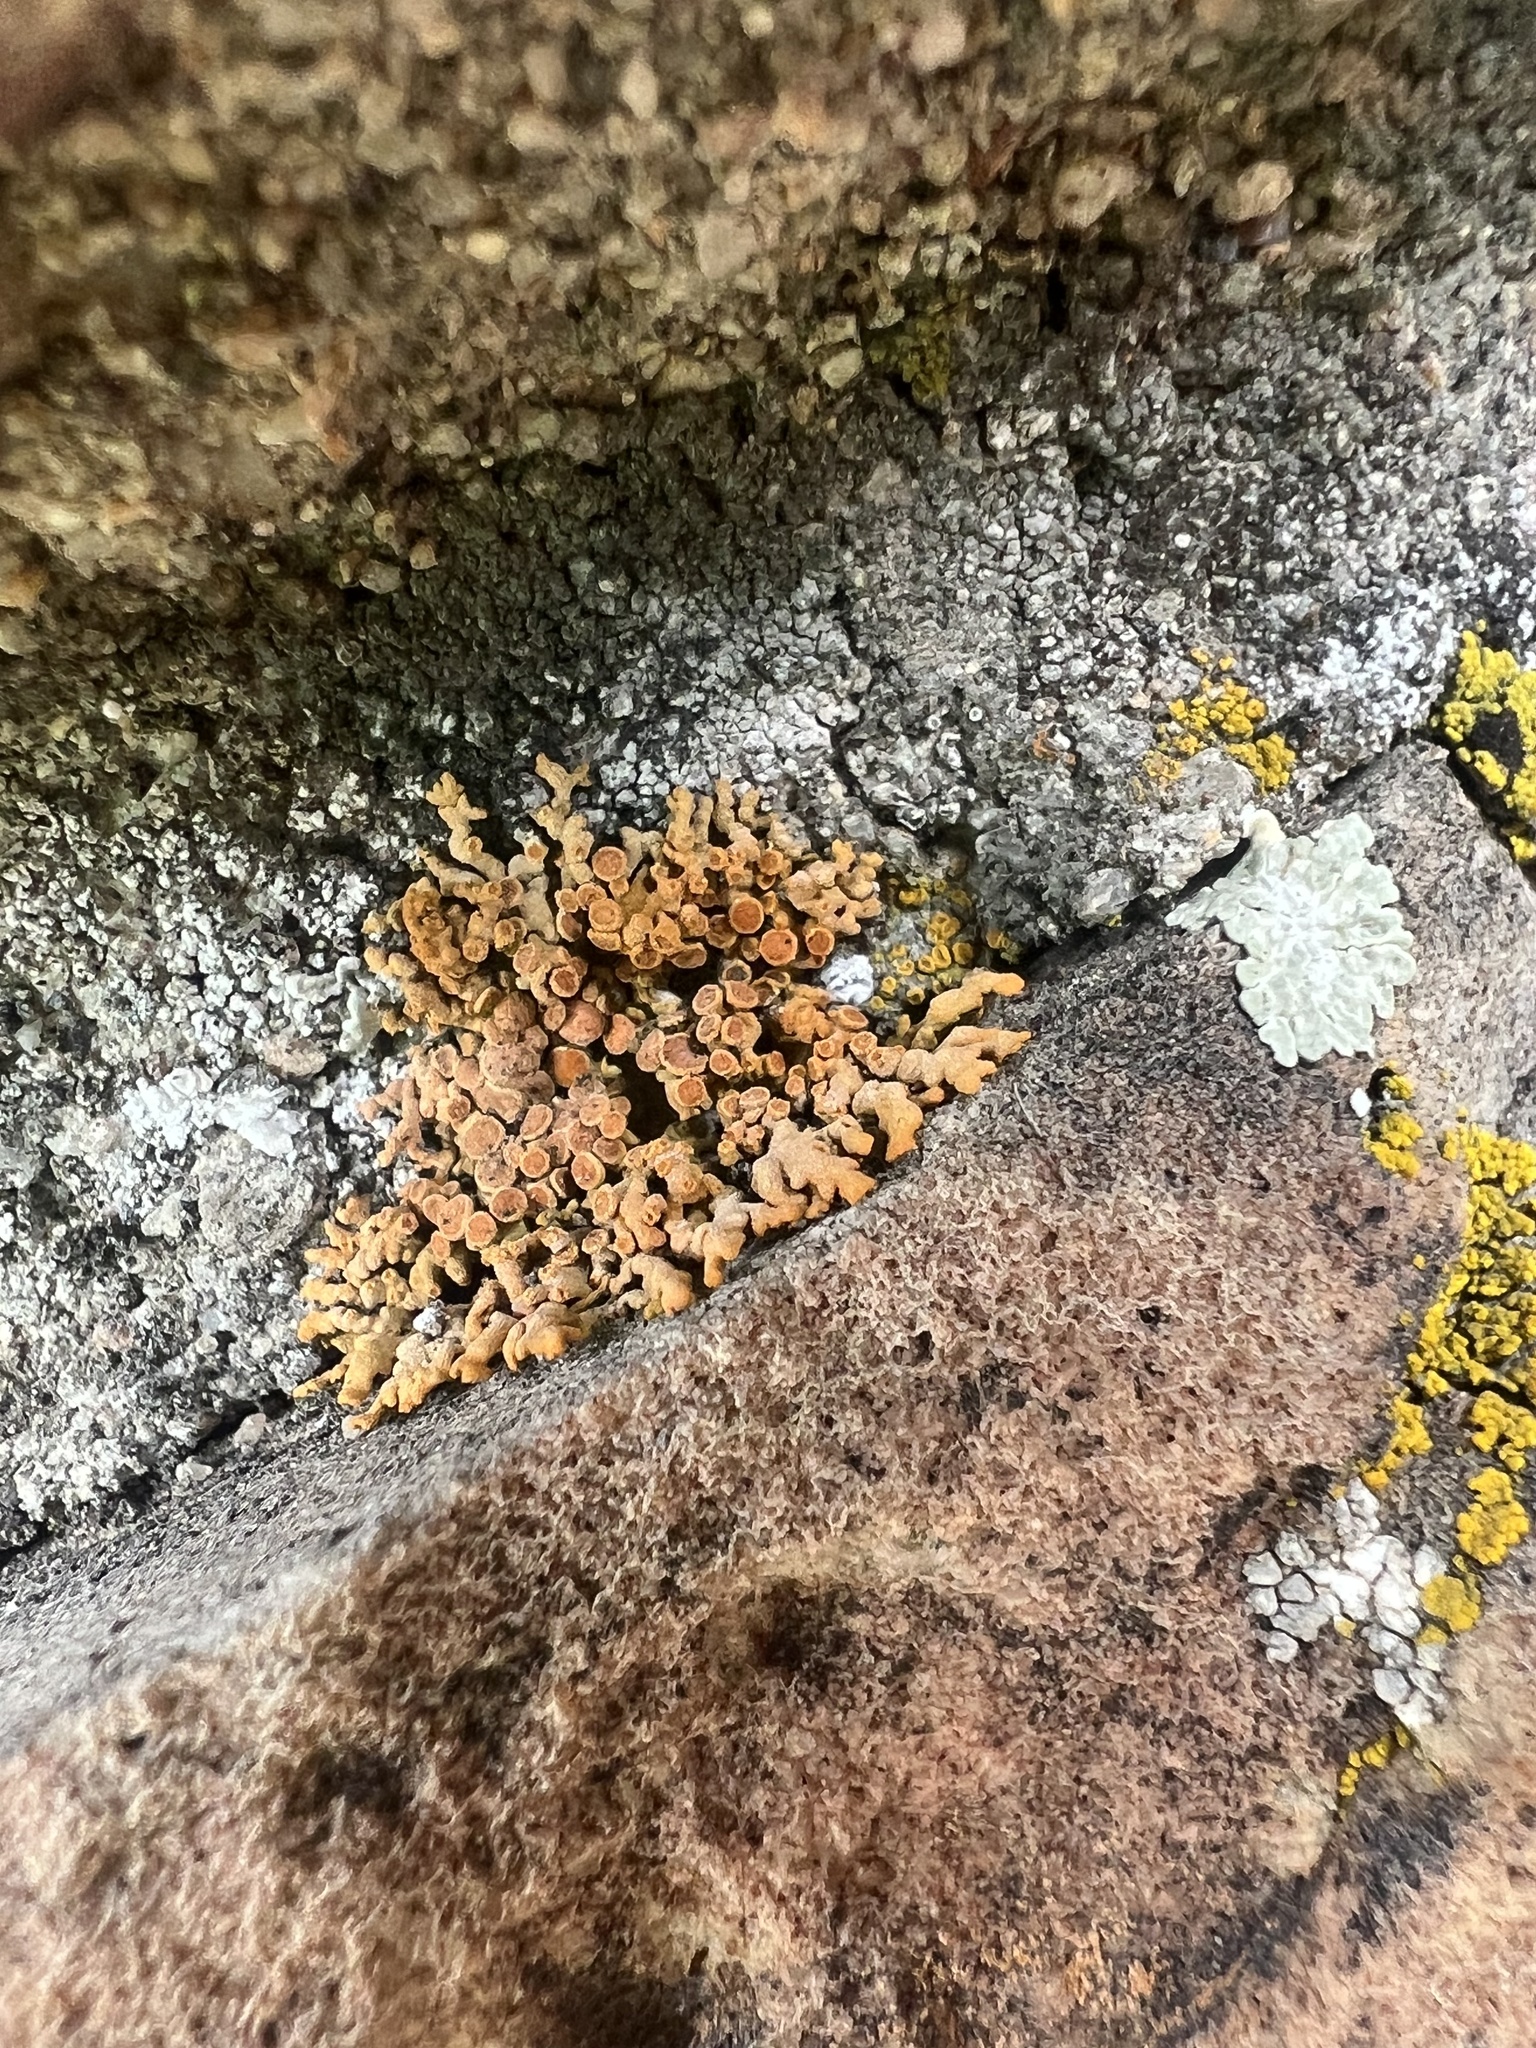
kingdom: Fungi
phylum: Ascomycota
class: Lecanoromycetes
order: Teloschistales
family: Teloschistaceae
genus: Xanthoria
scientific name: Xanthoria elegans
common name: Elegant sunburst lichen
